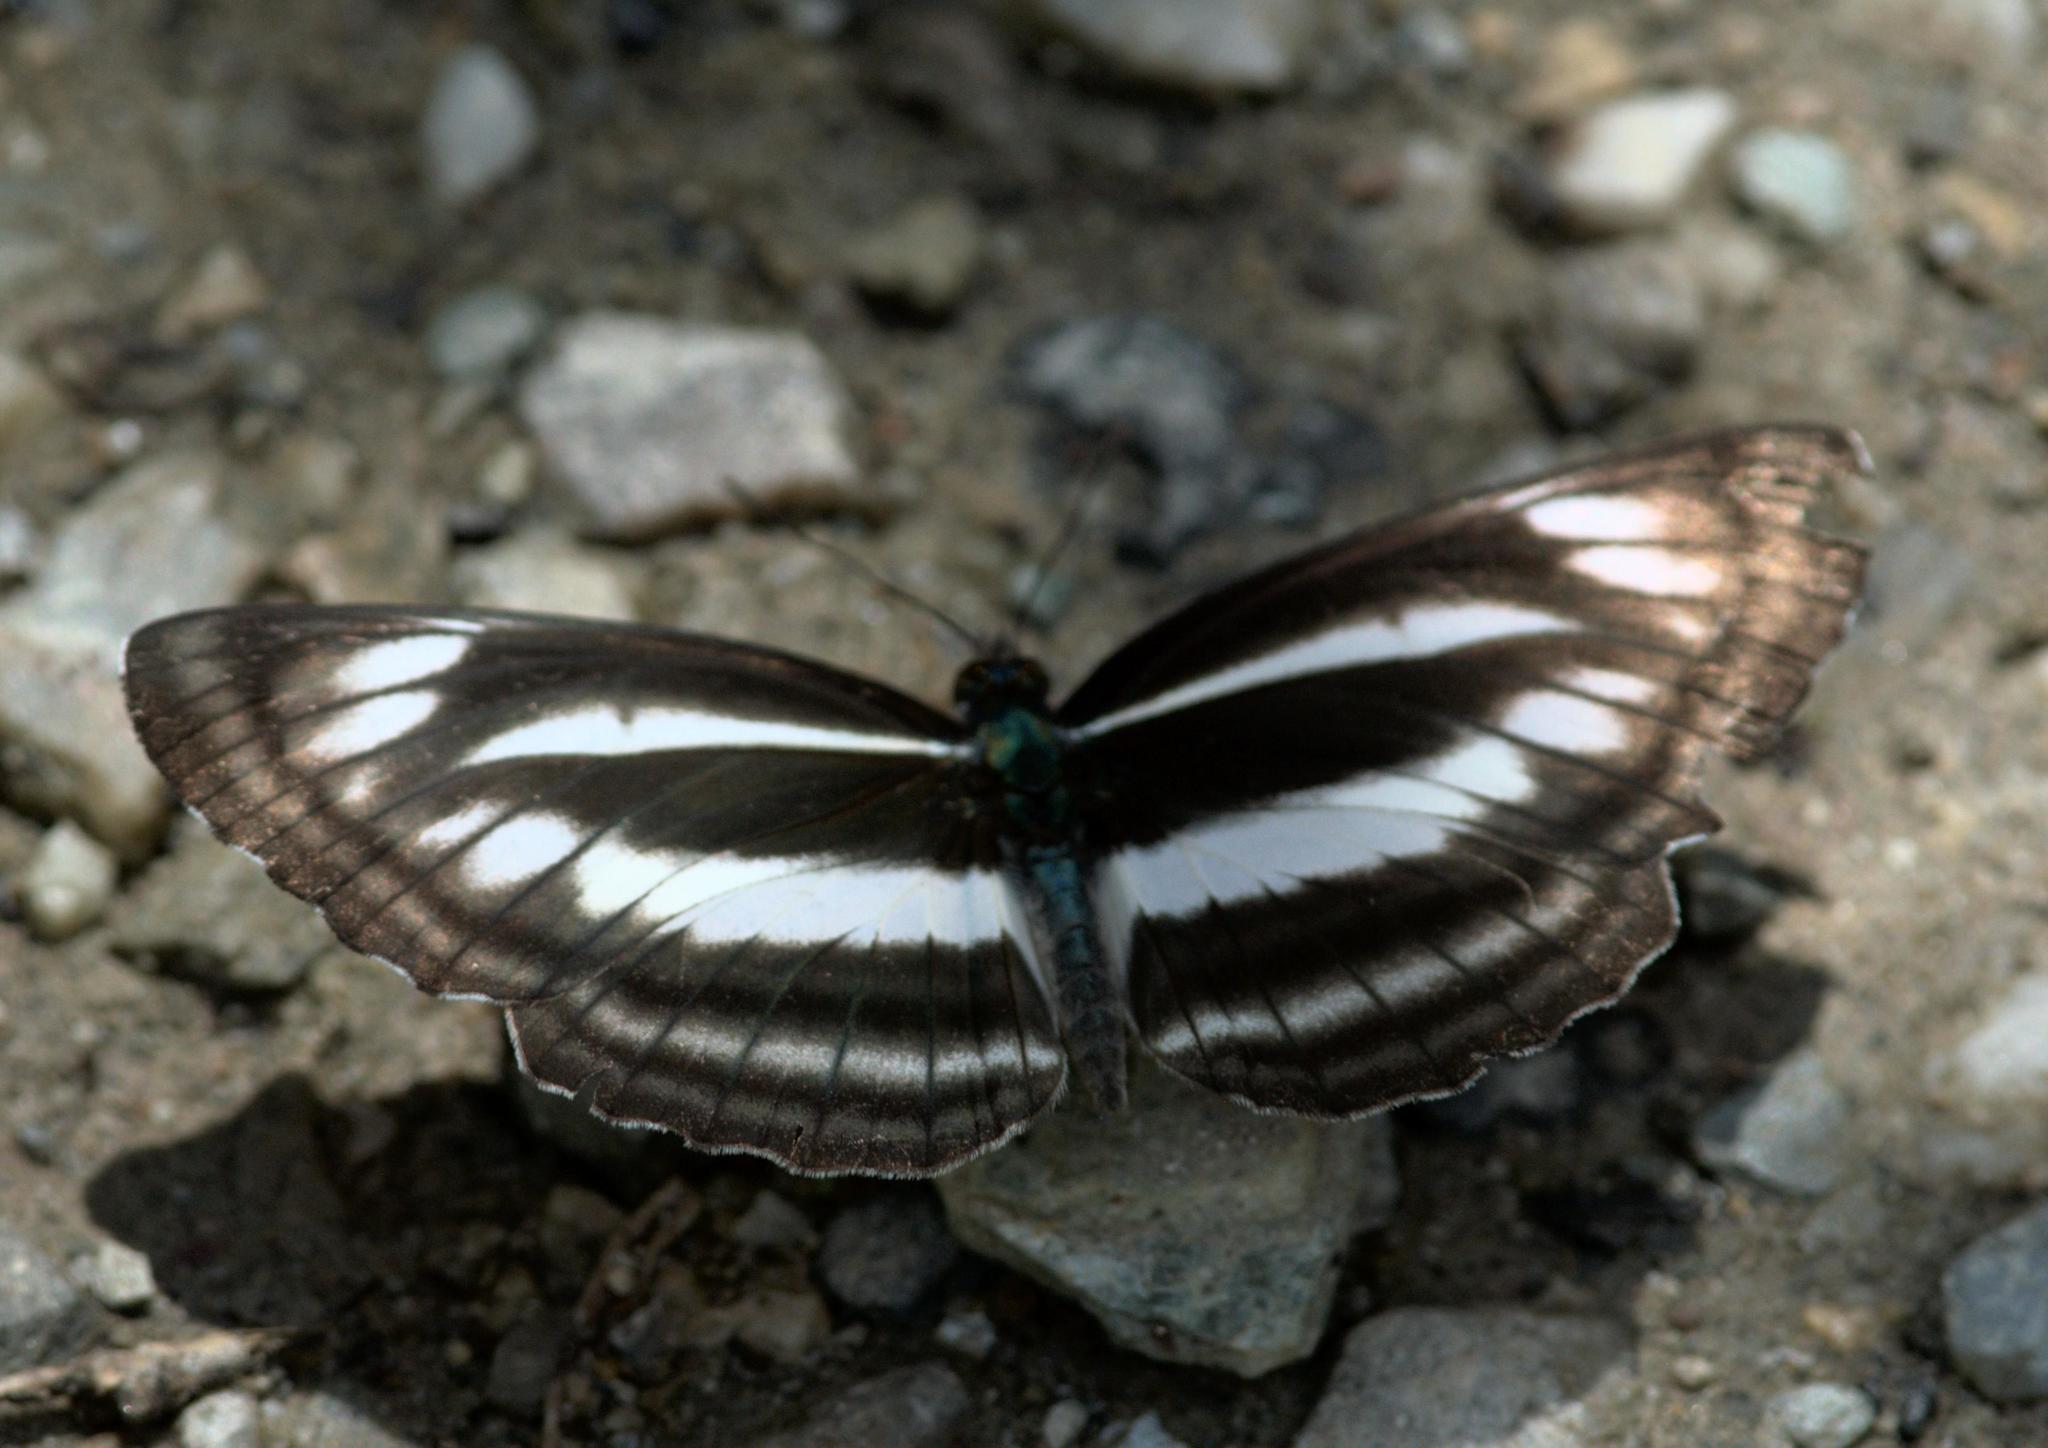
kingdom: Animalia
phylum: Arthropoda
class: Insecta
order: Lepidoptera
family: Nymphalidae
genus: Neptis
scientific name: Neptis sankara
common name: Broad-banded sailer
